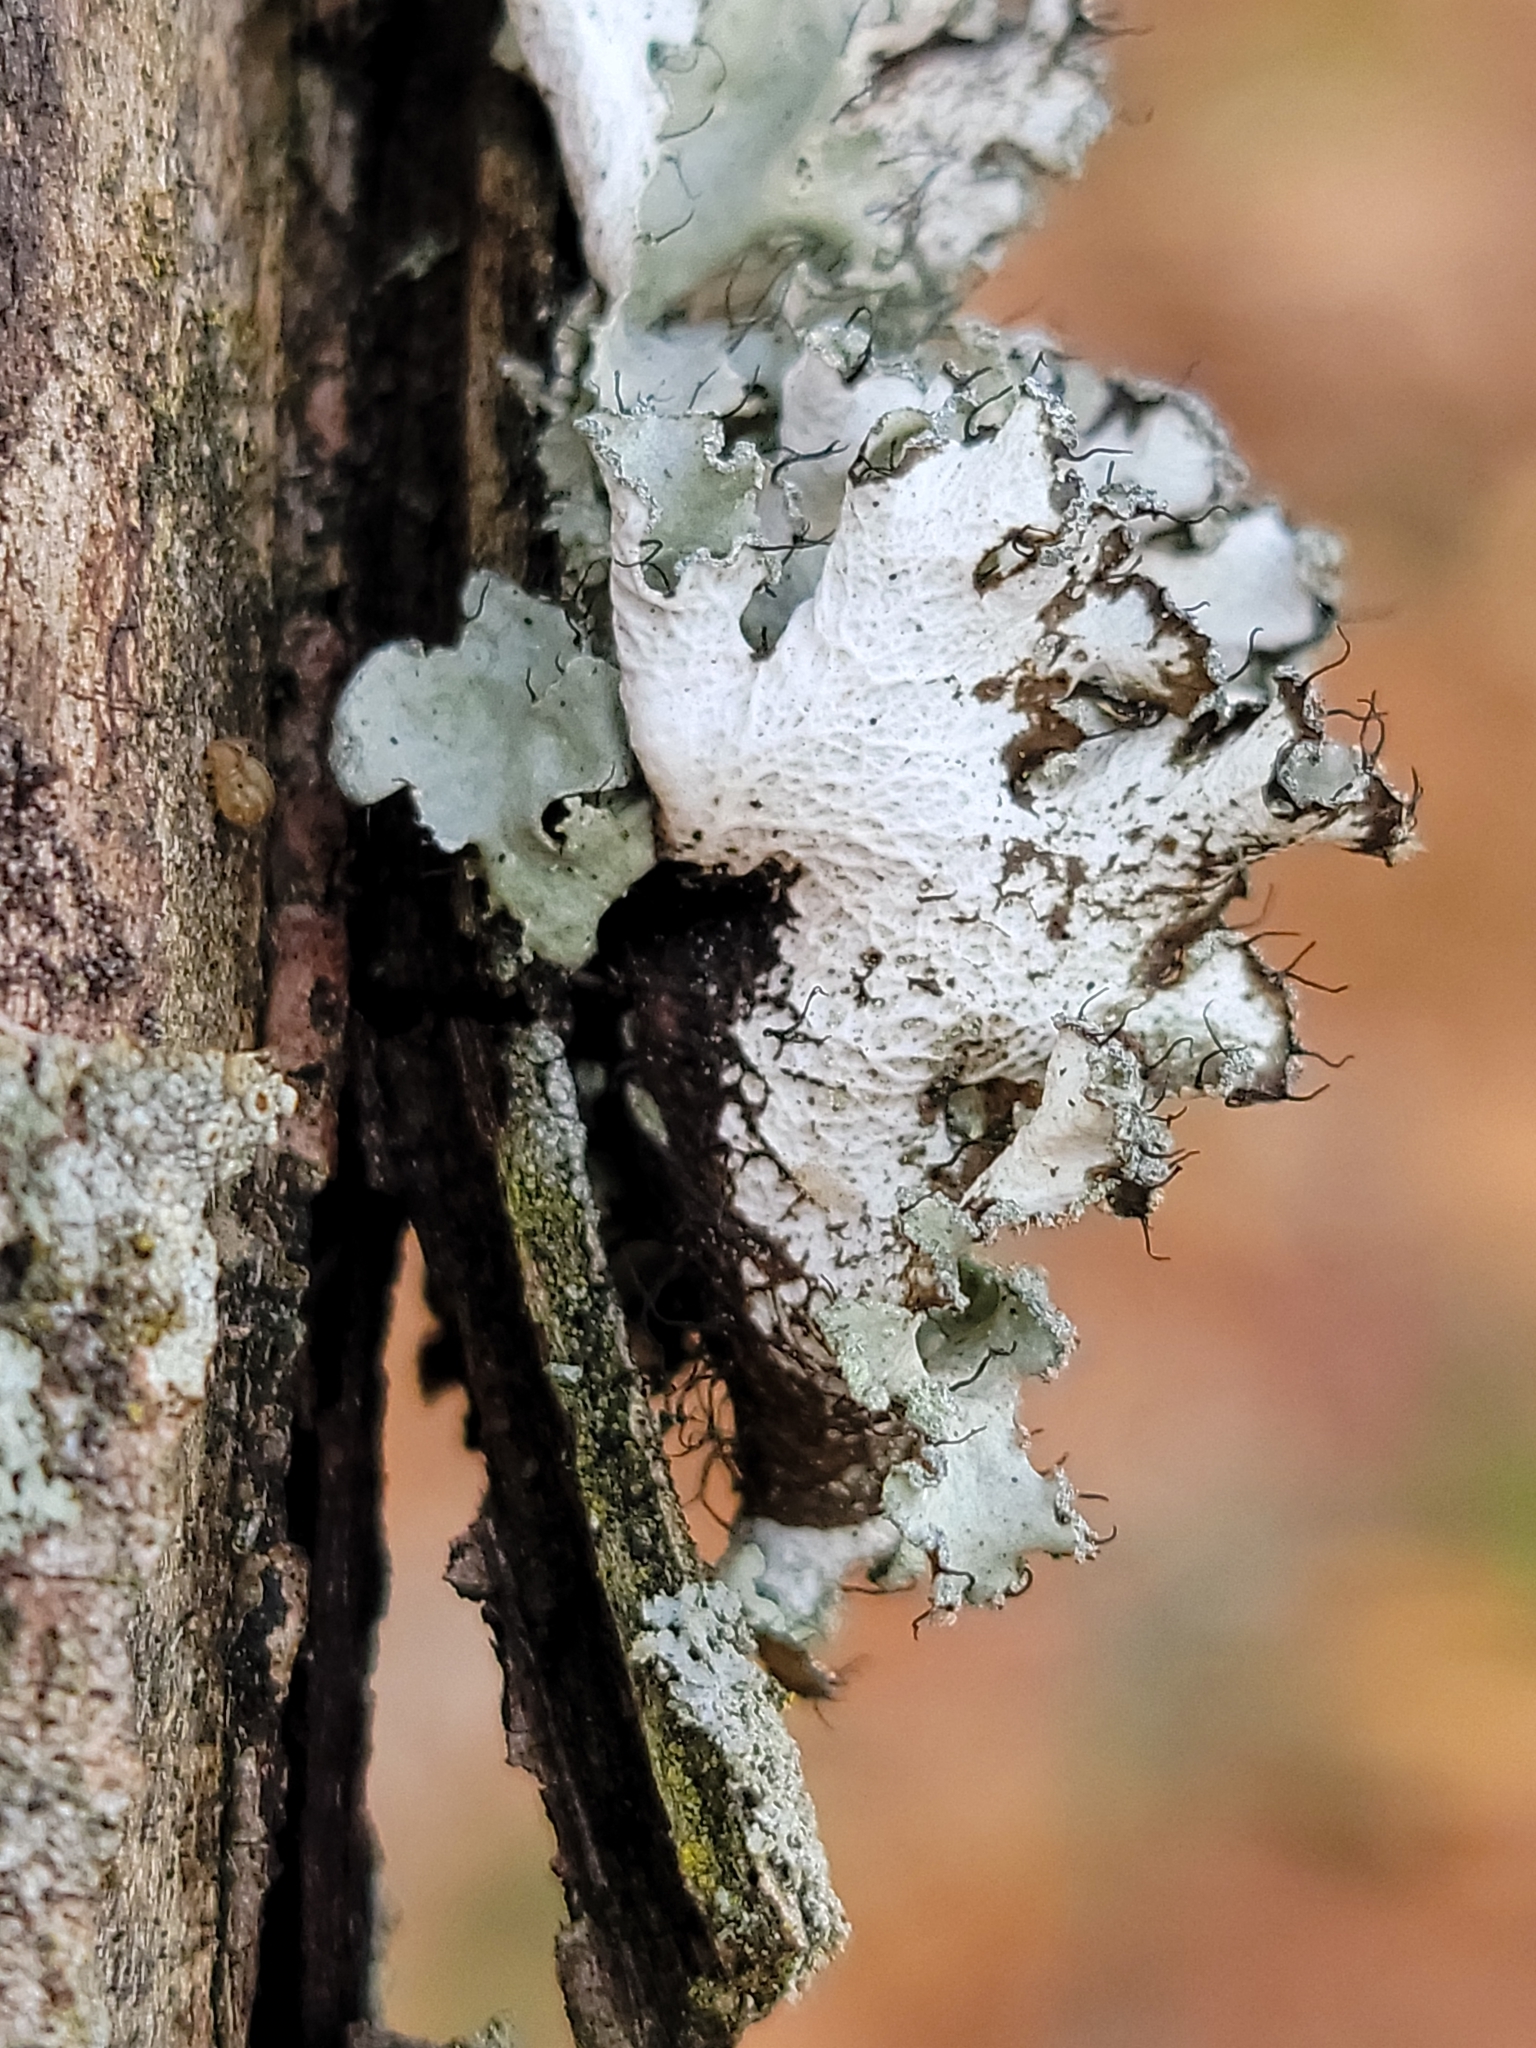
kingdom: Fungi
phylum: Ascomycota
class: Lecanoromycetes
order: Lecanorales
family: Parmeliaceae
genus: Parmotrema
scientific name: Parmotrema hypotropum
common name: Powdered ruffle lichen
